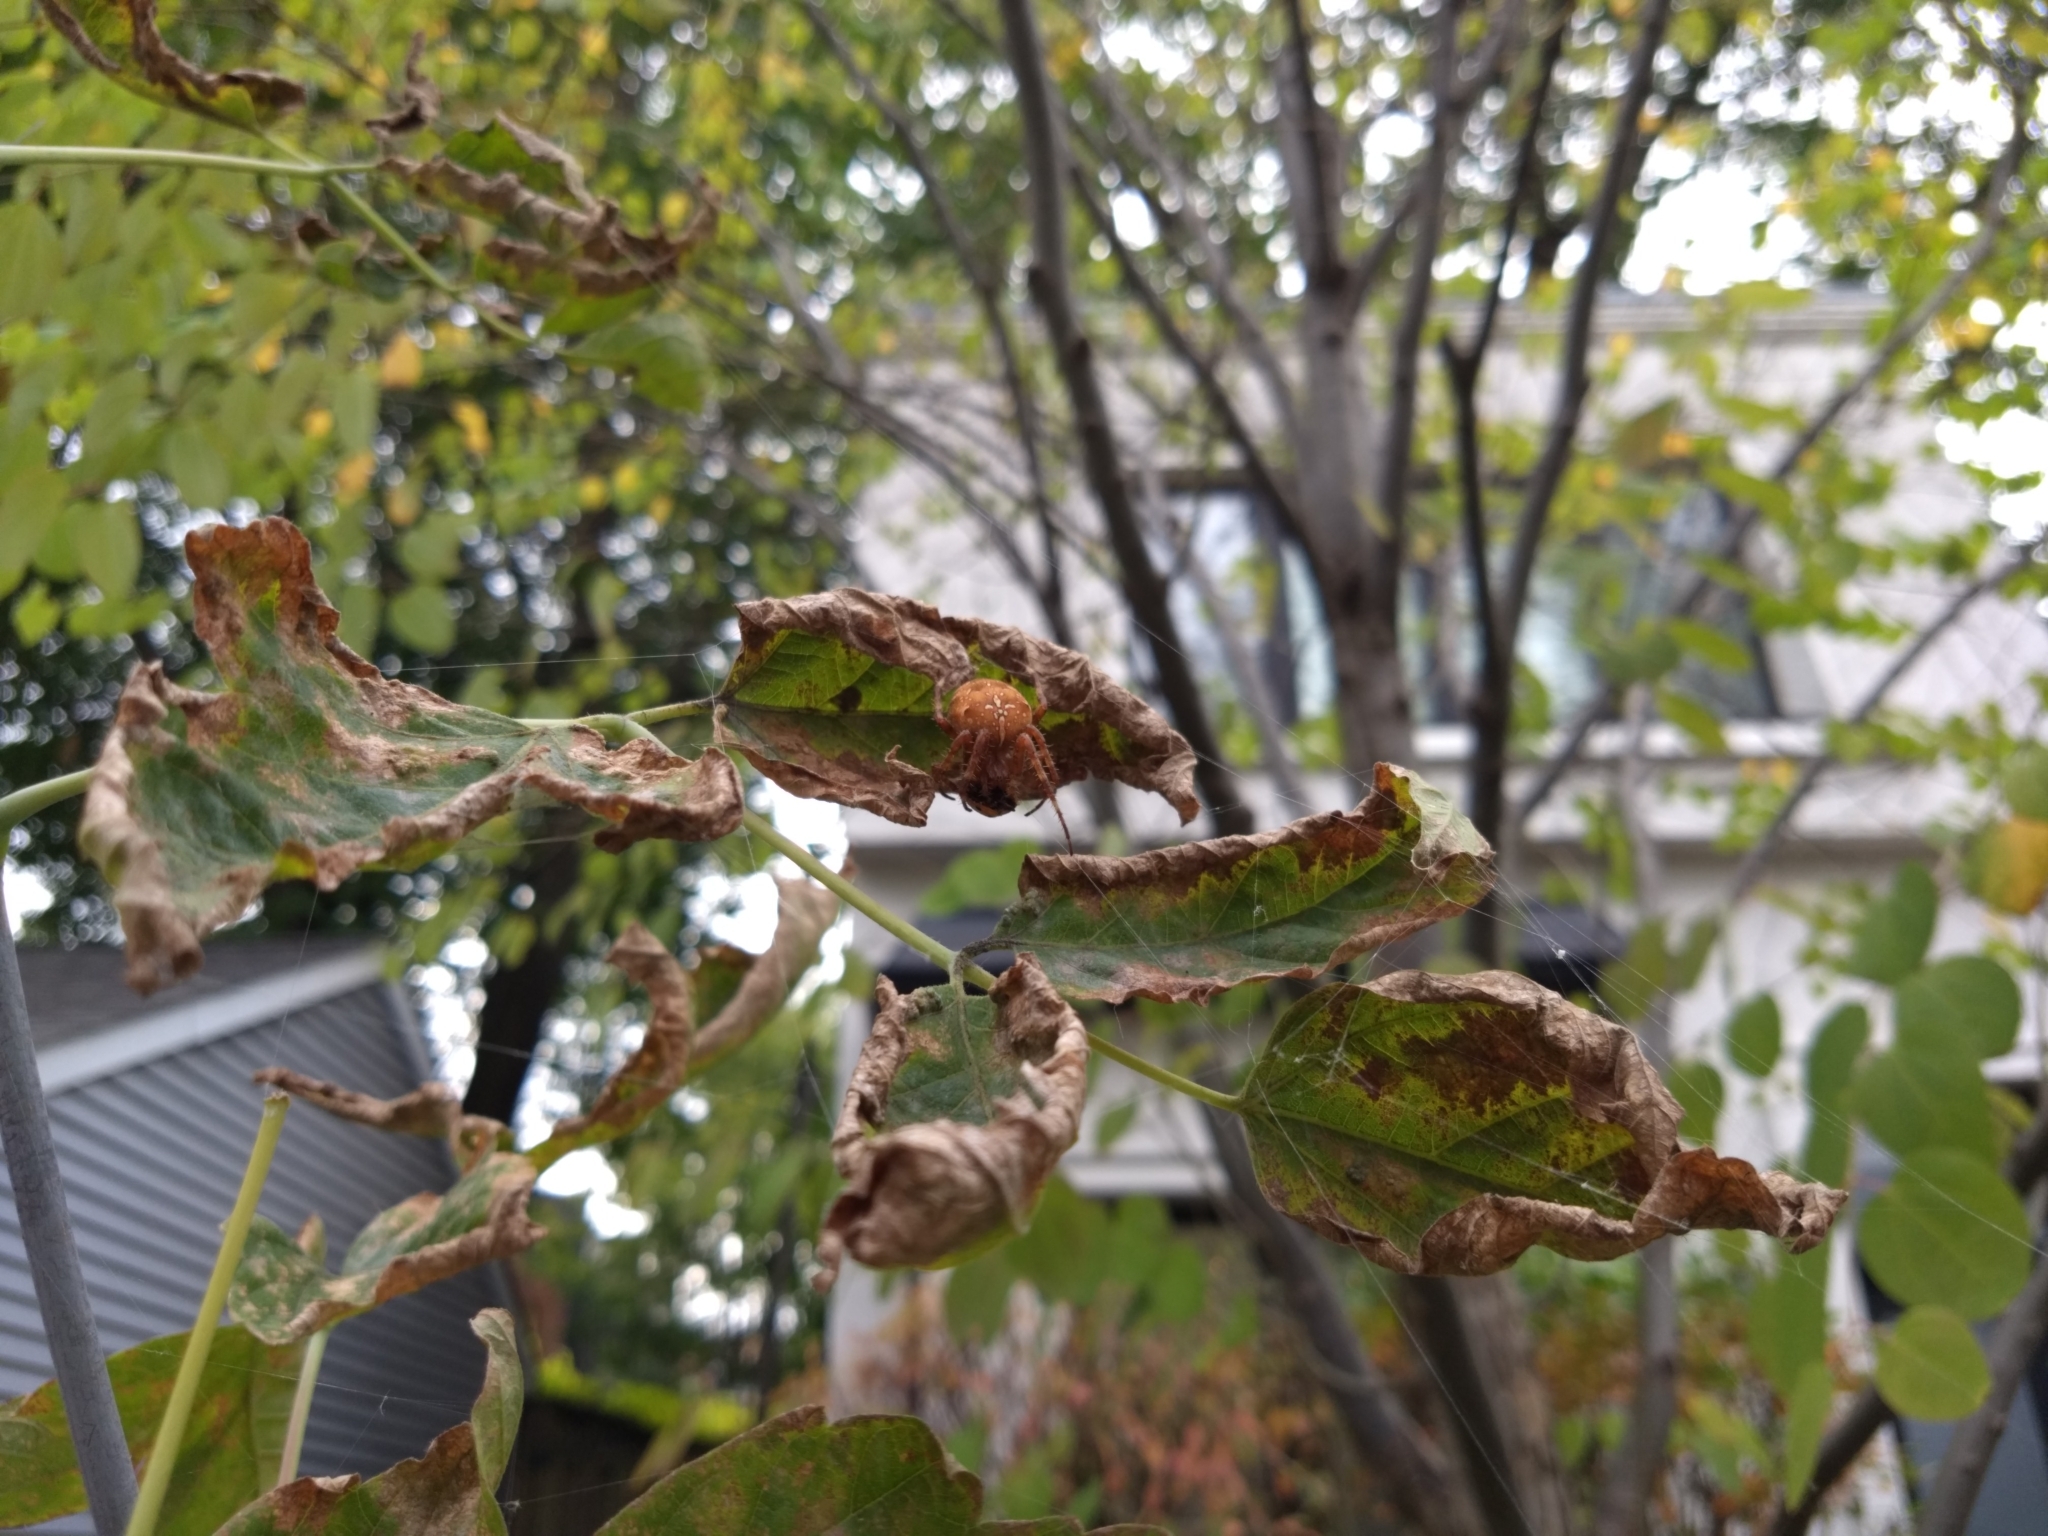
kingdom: Animalia
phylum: Arthropoda
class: Arachnida
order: Araneae
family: Araneidae
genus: Araneus
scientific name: Araneus diadematus
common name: Cross orbweaver
